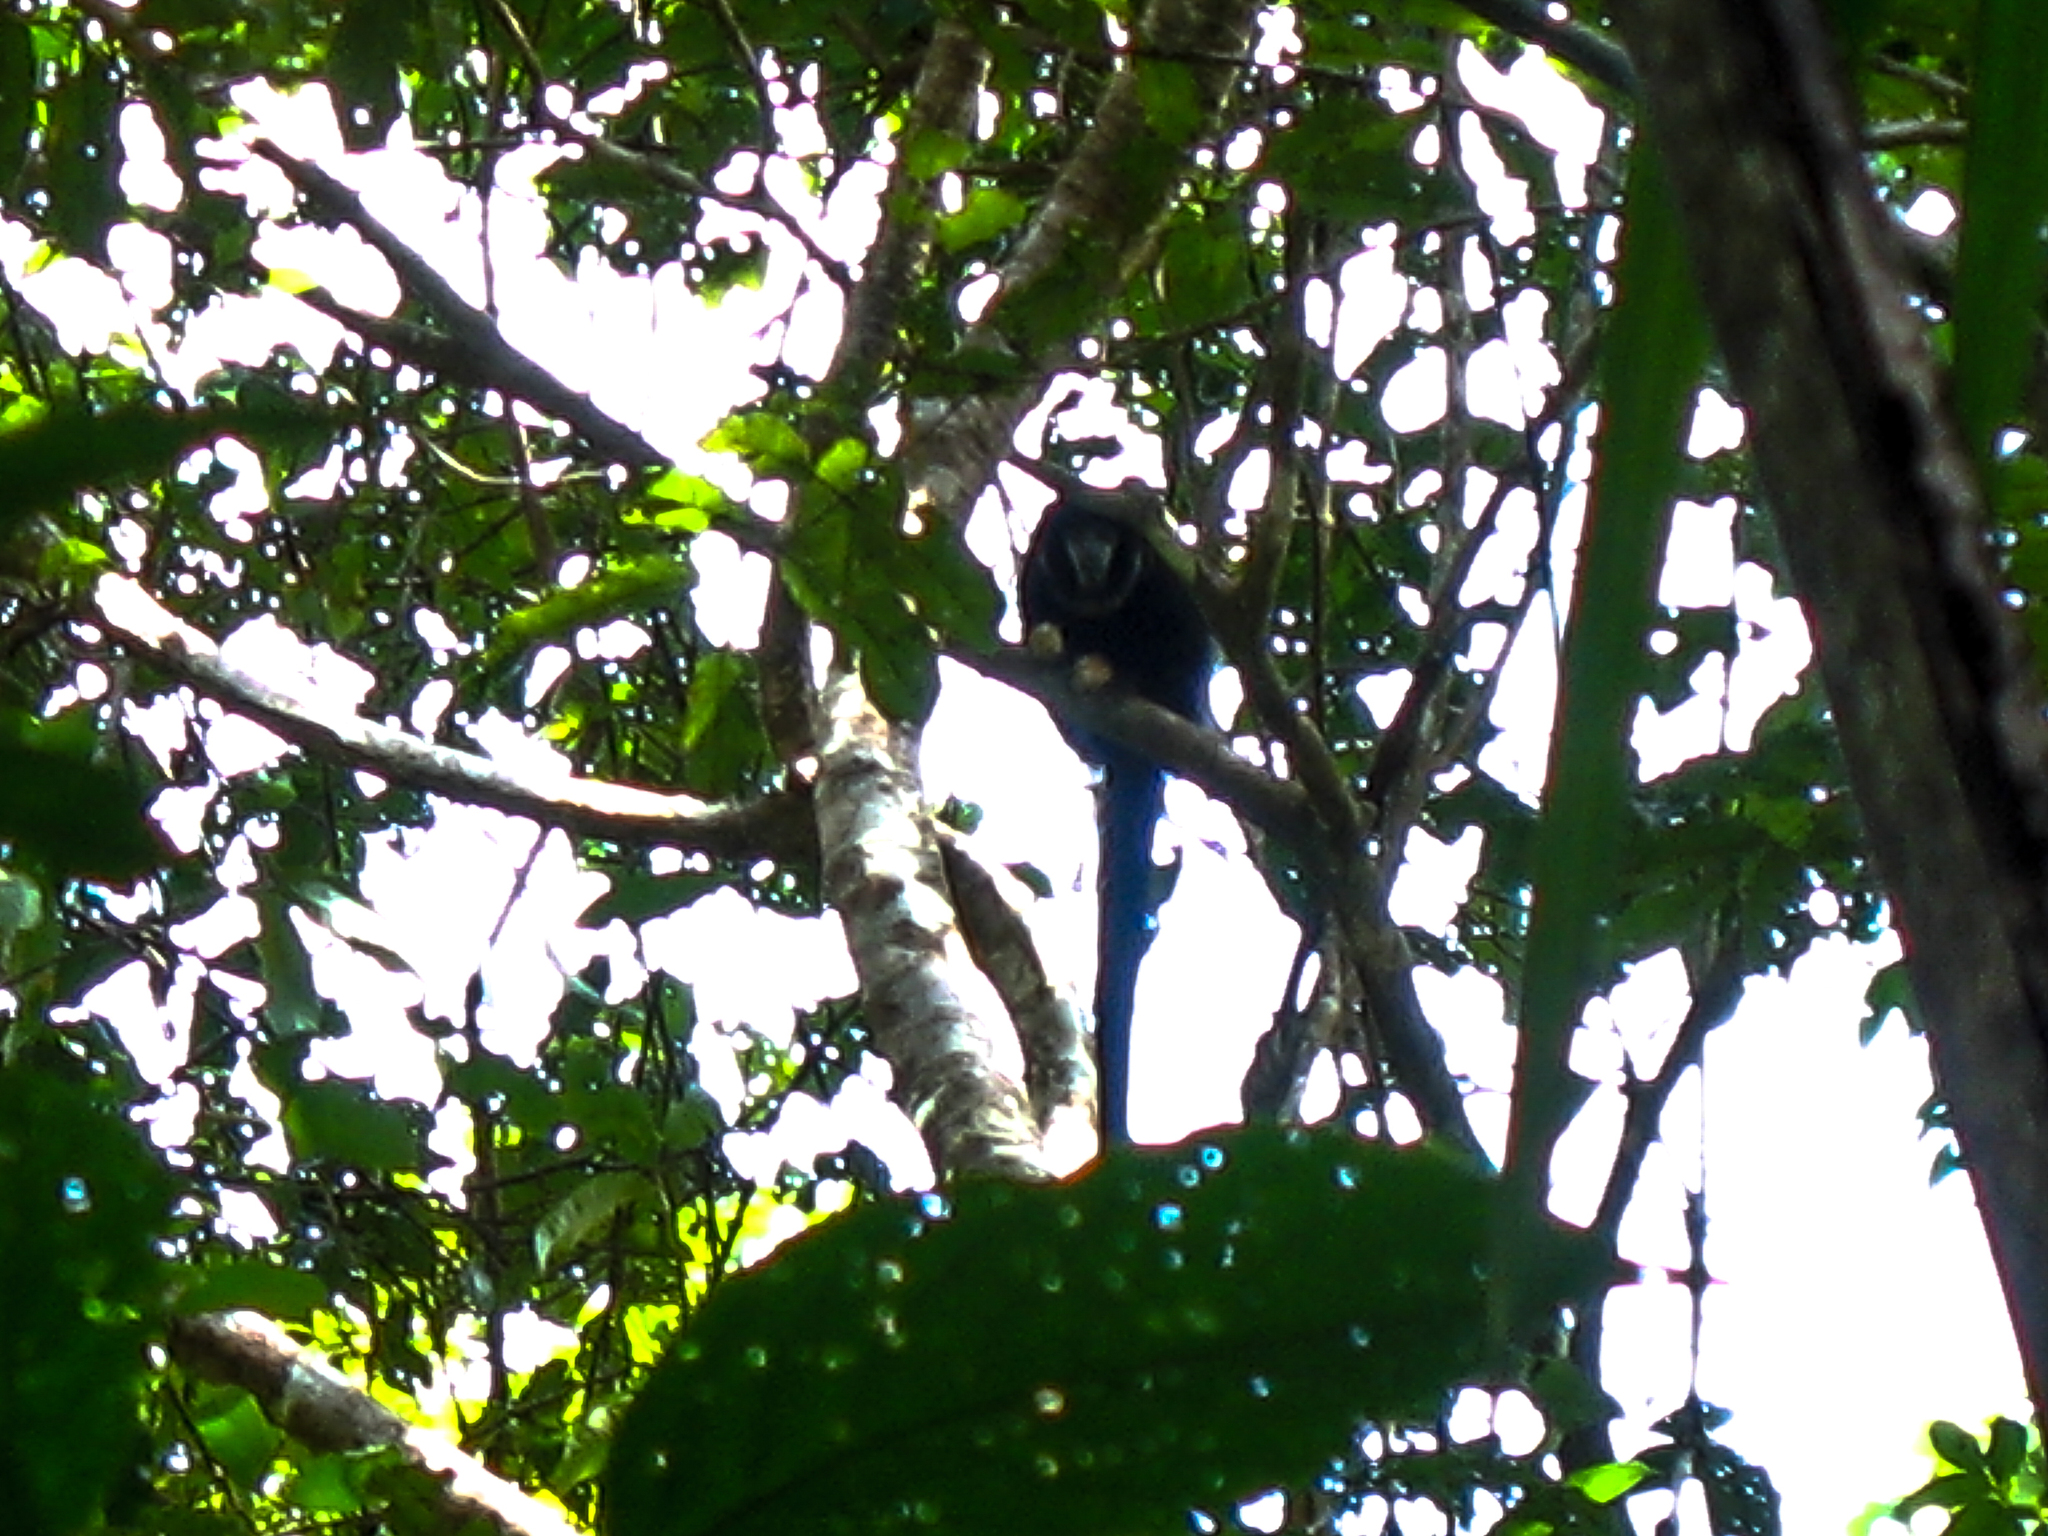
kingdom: Animalia
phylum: Chordata
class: Mammalia
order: Primates
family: Pitheciidae
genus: Cheracebus
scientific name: Cheracebus lugens
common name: Widow monkey
